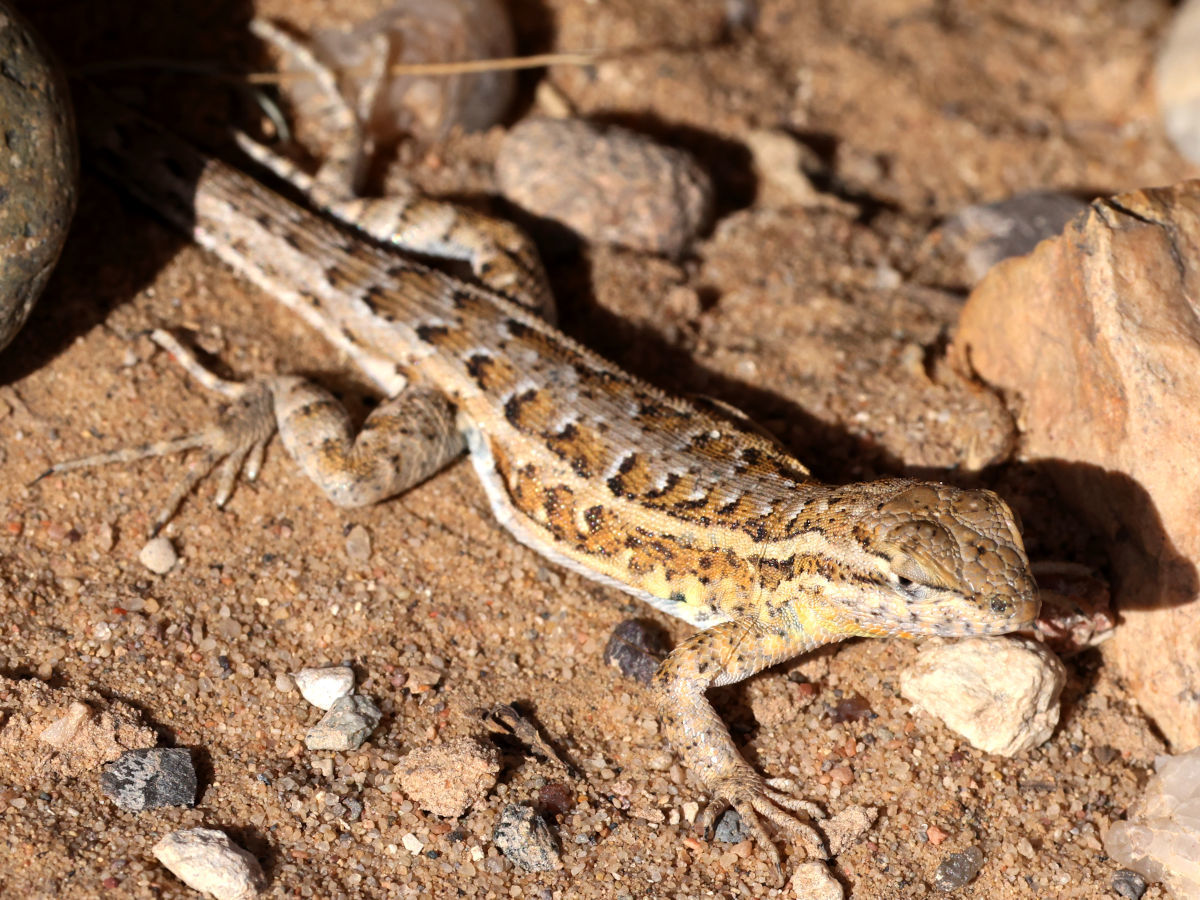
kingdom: Animalia
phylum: Chordata
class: Squamata
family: Phrynosomatidae
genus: Uta
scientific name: Uta stansburiana
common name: Side-blotched lizard
